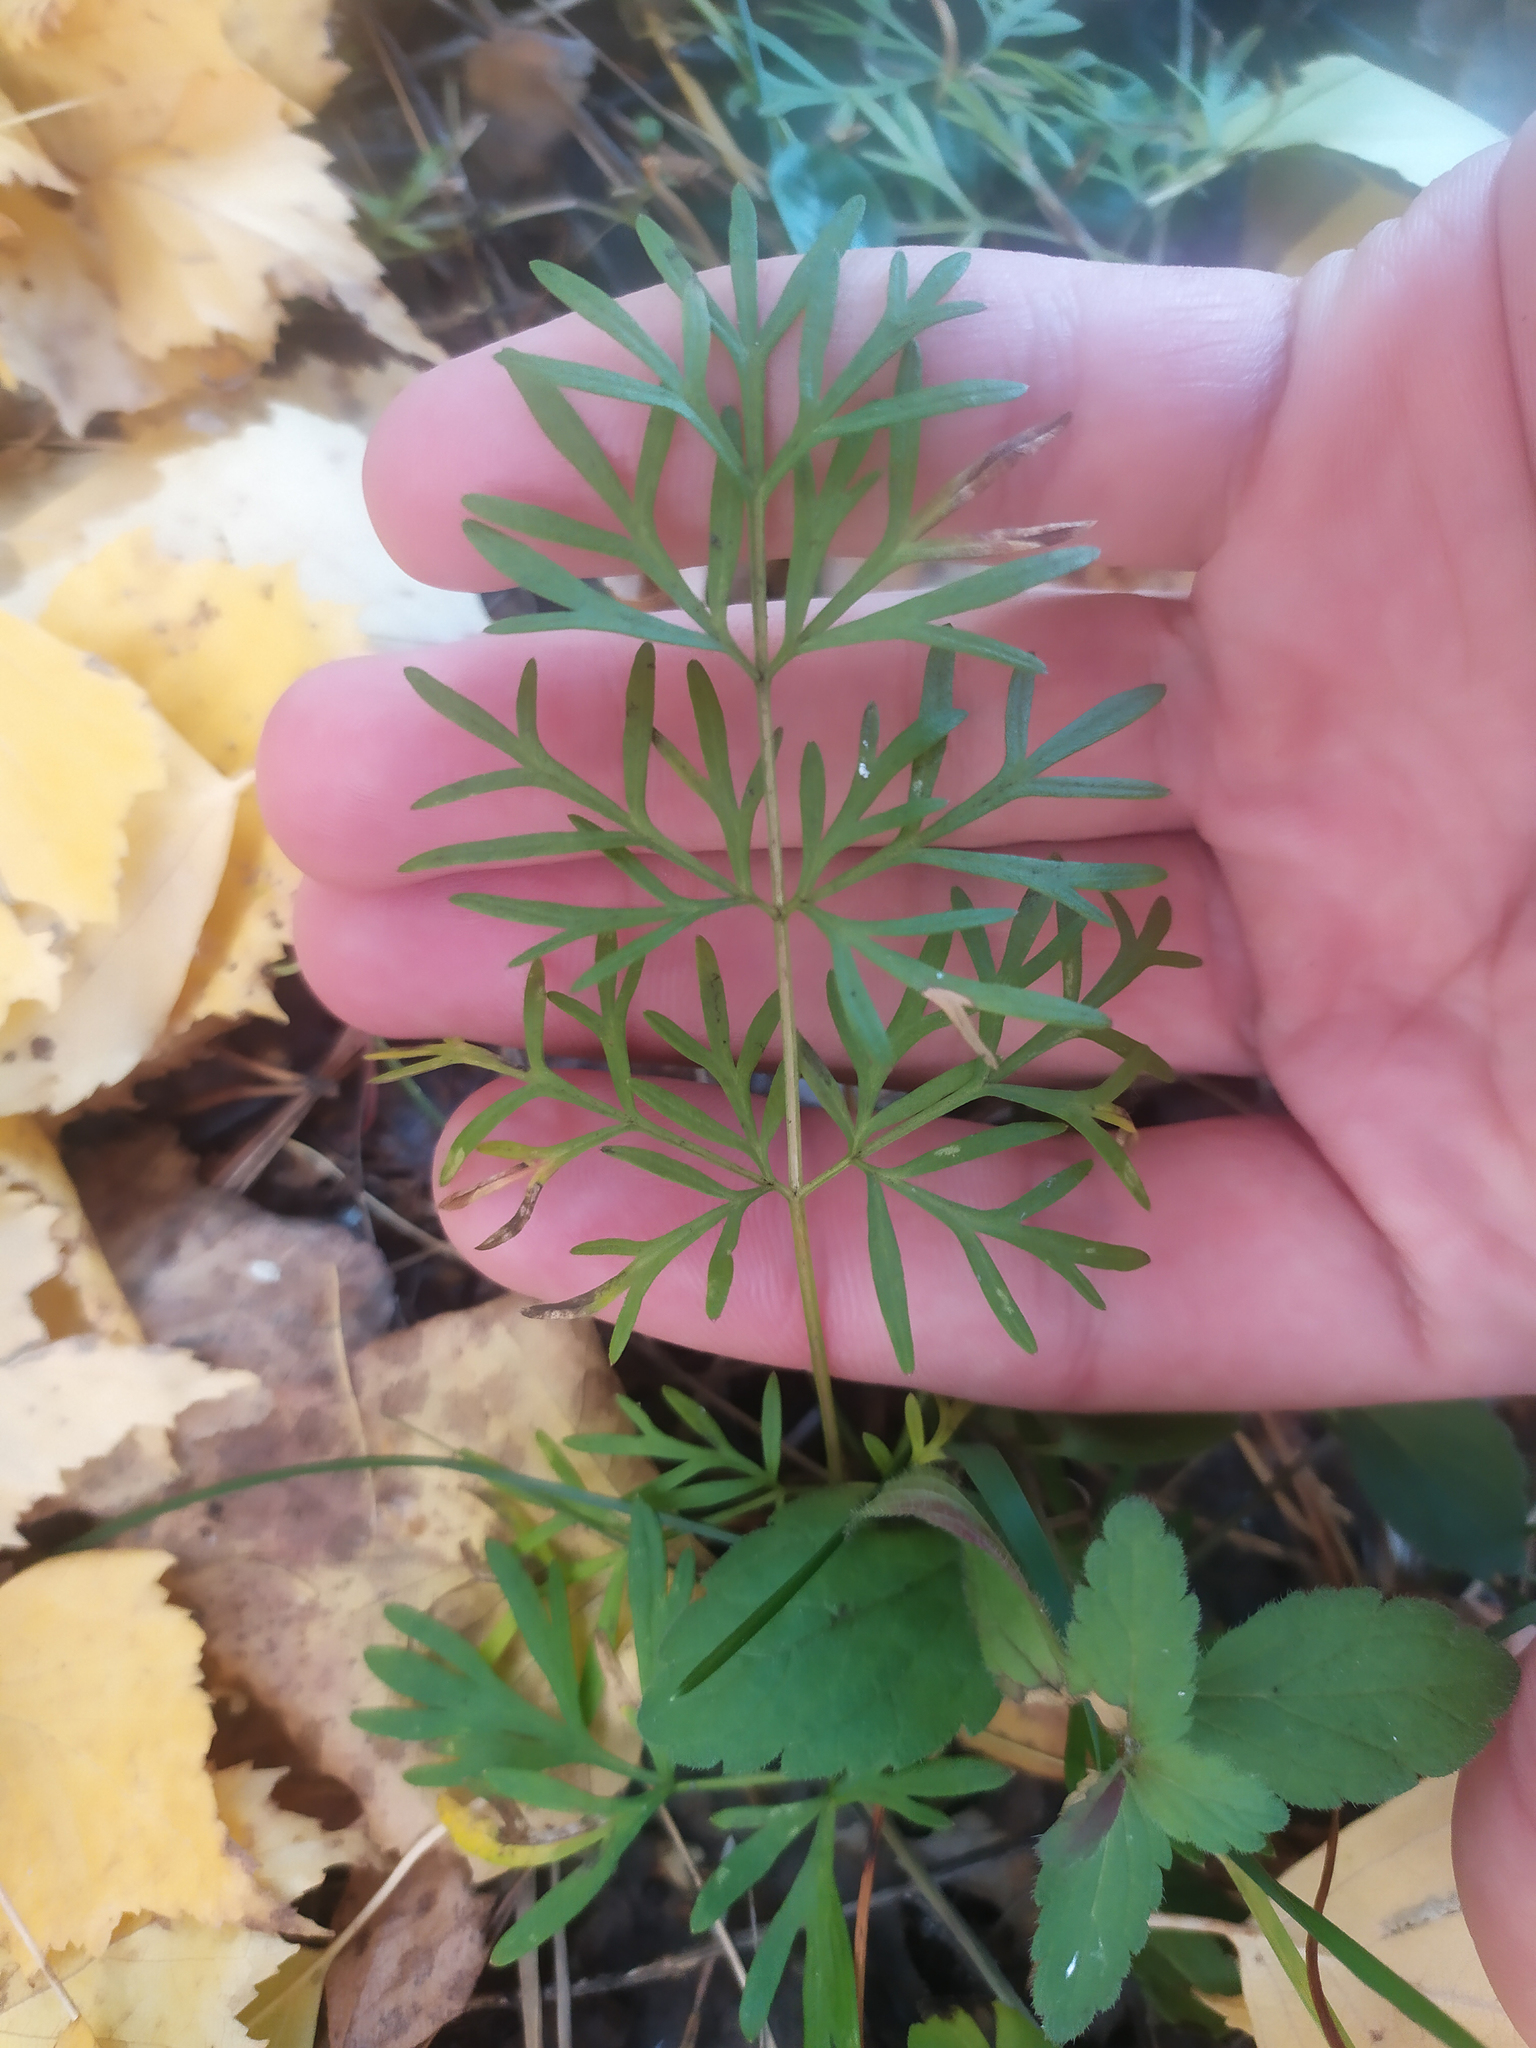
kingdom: Plantae
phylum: Tracheophyta
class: Magnoliopsida
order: Apiales
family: Apiaceae
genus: Kadenia
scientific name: Kadenia dubia
